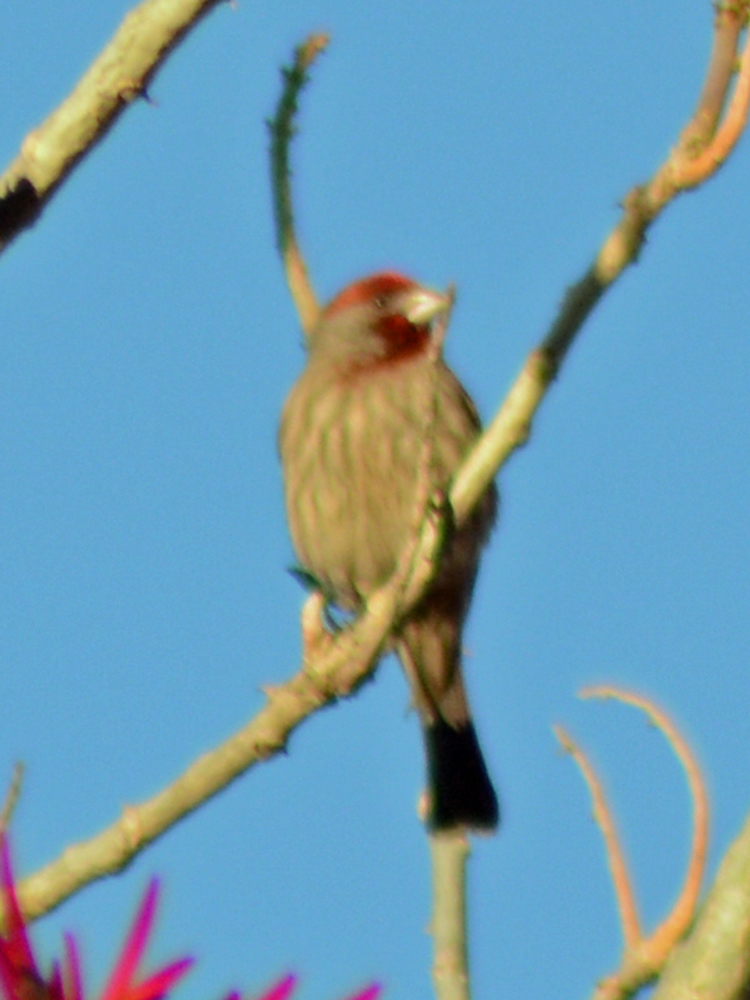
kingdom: Animalia
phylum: Chordata
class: Aves
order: Passeriformes
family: Fringillidae
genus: Haemorhous
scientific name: Haemorhous mexicanus
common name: House finch
